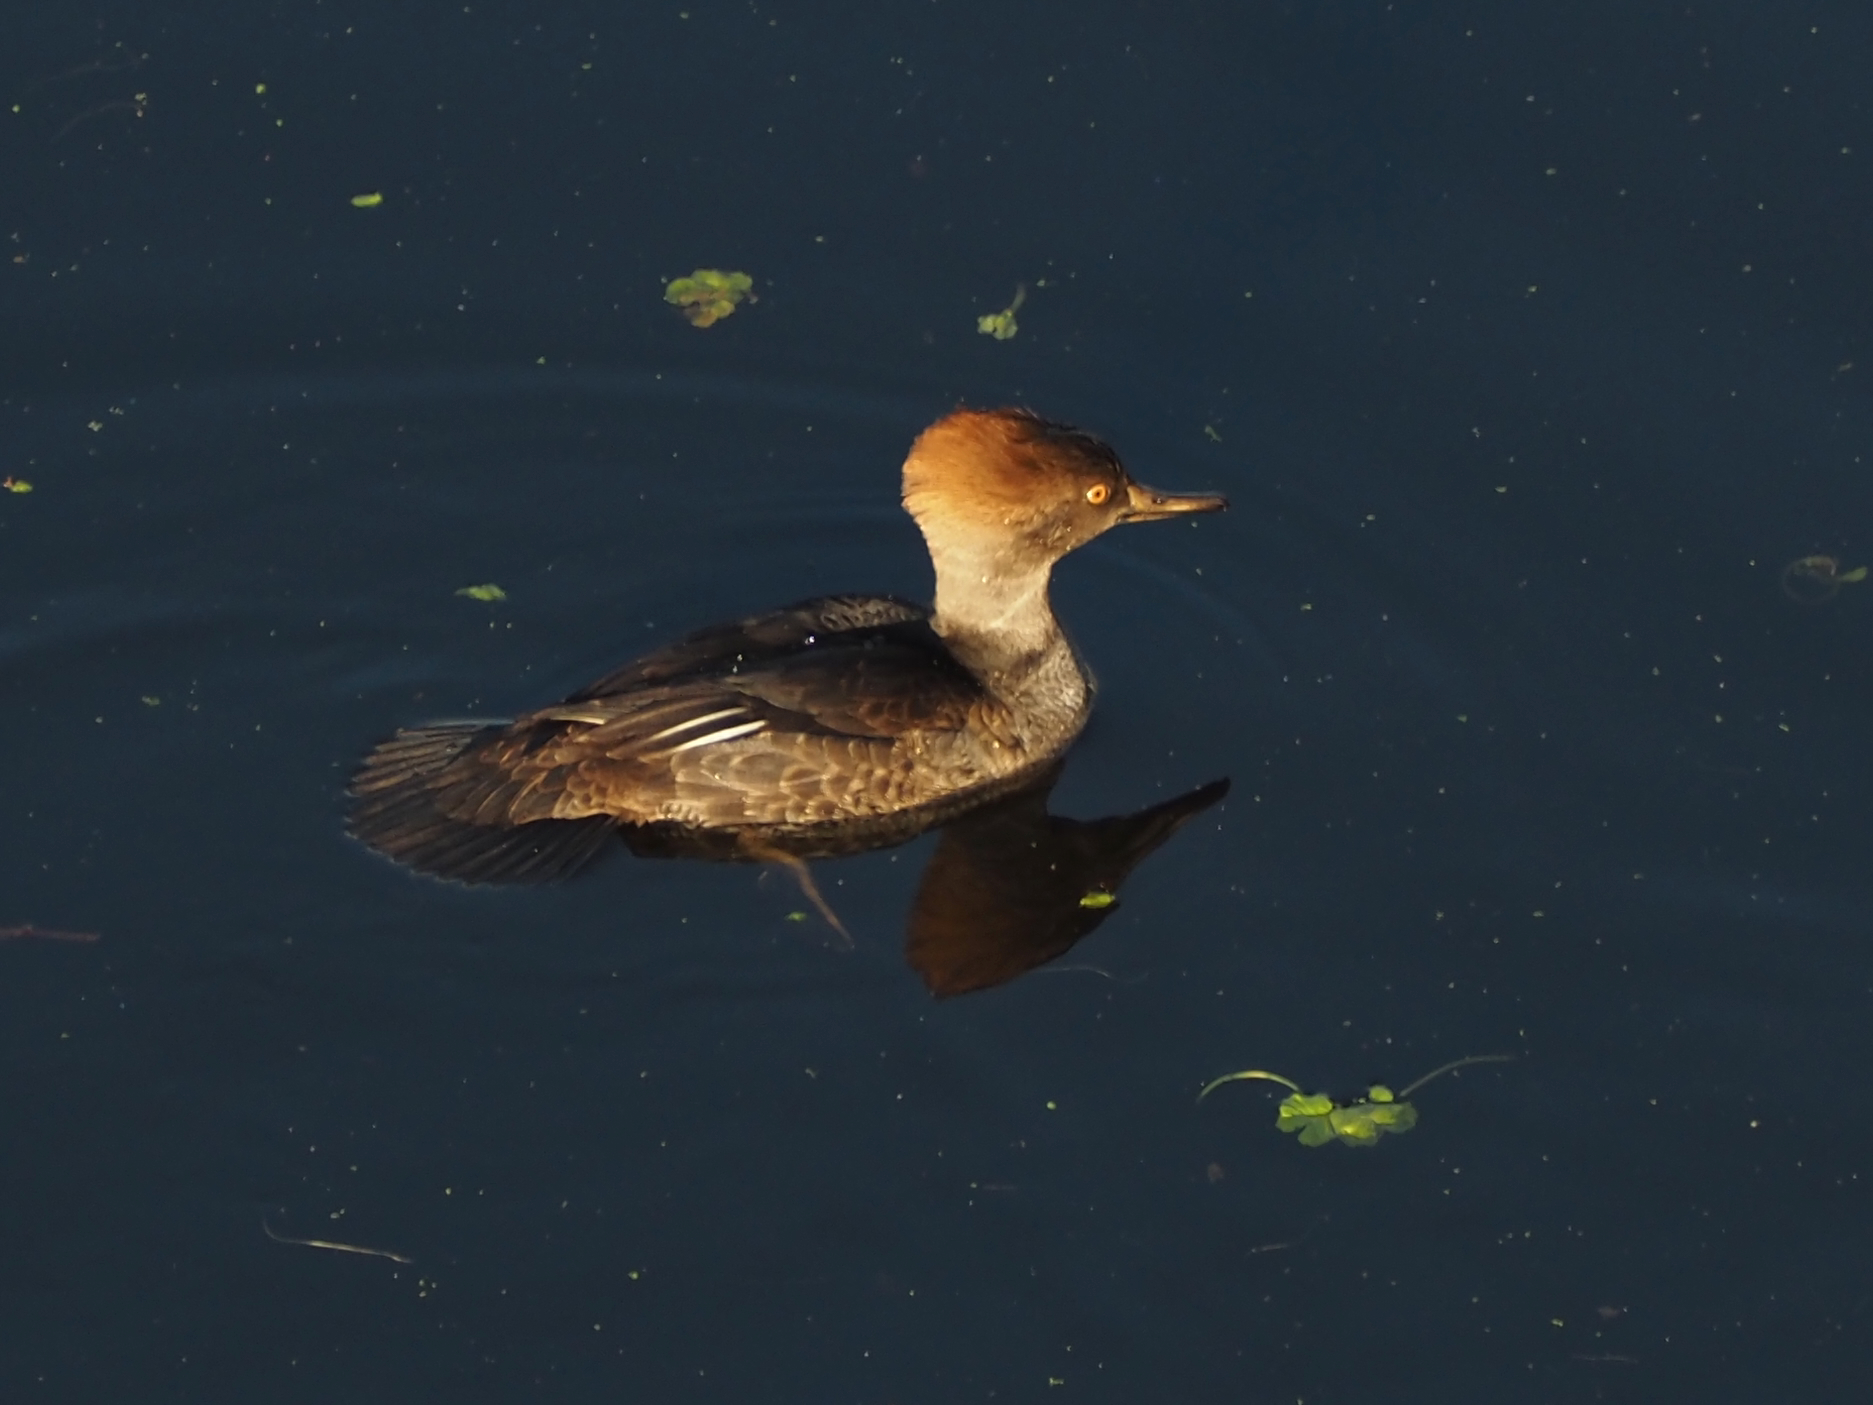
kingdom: Animalia
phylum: Chordata
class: Aves
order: Anseriformes
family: Anatidae
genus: Lophodytes
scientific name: Lophodytes cucullatus
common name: Hooded merganser
